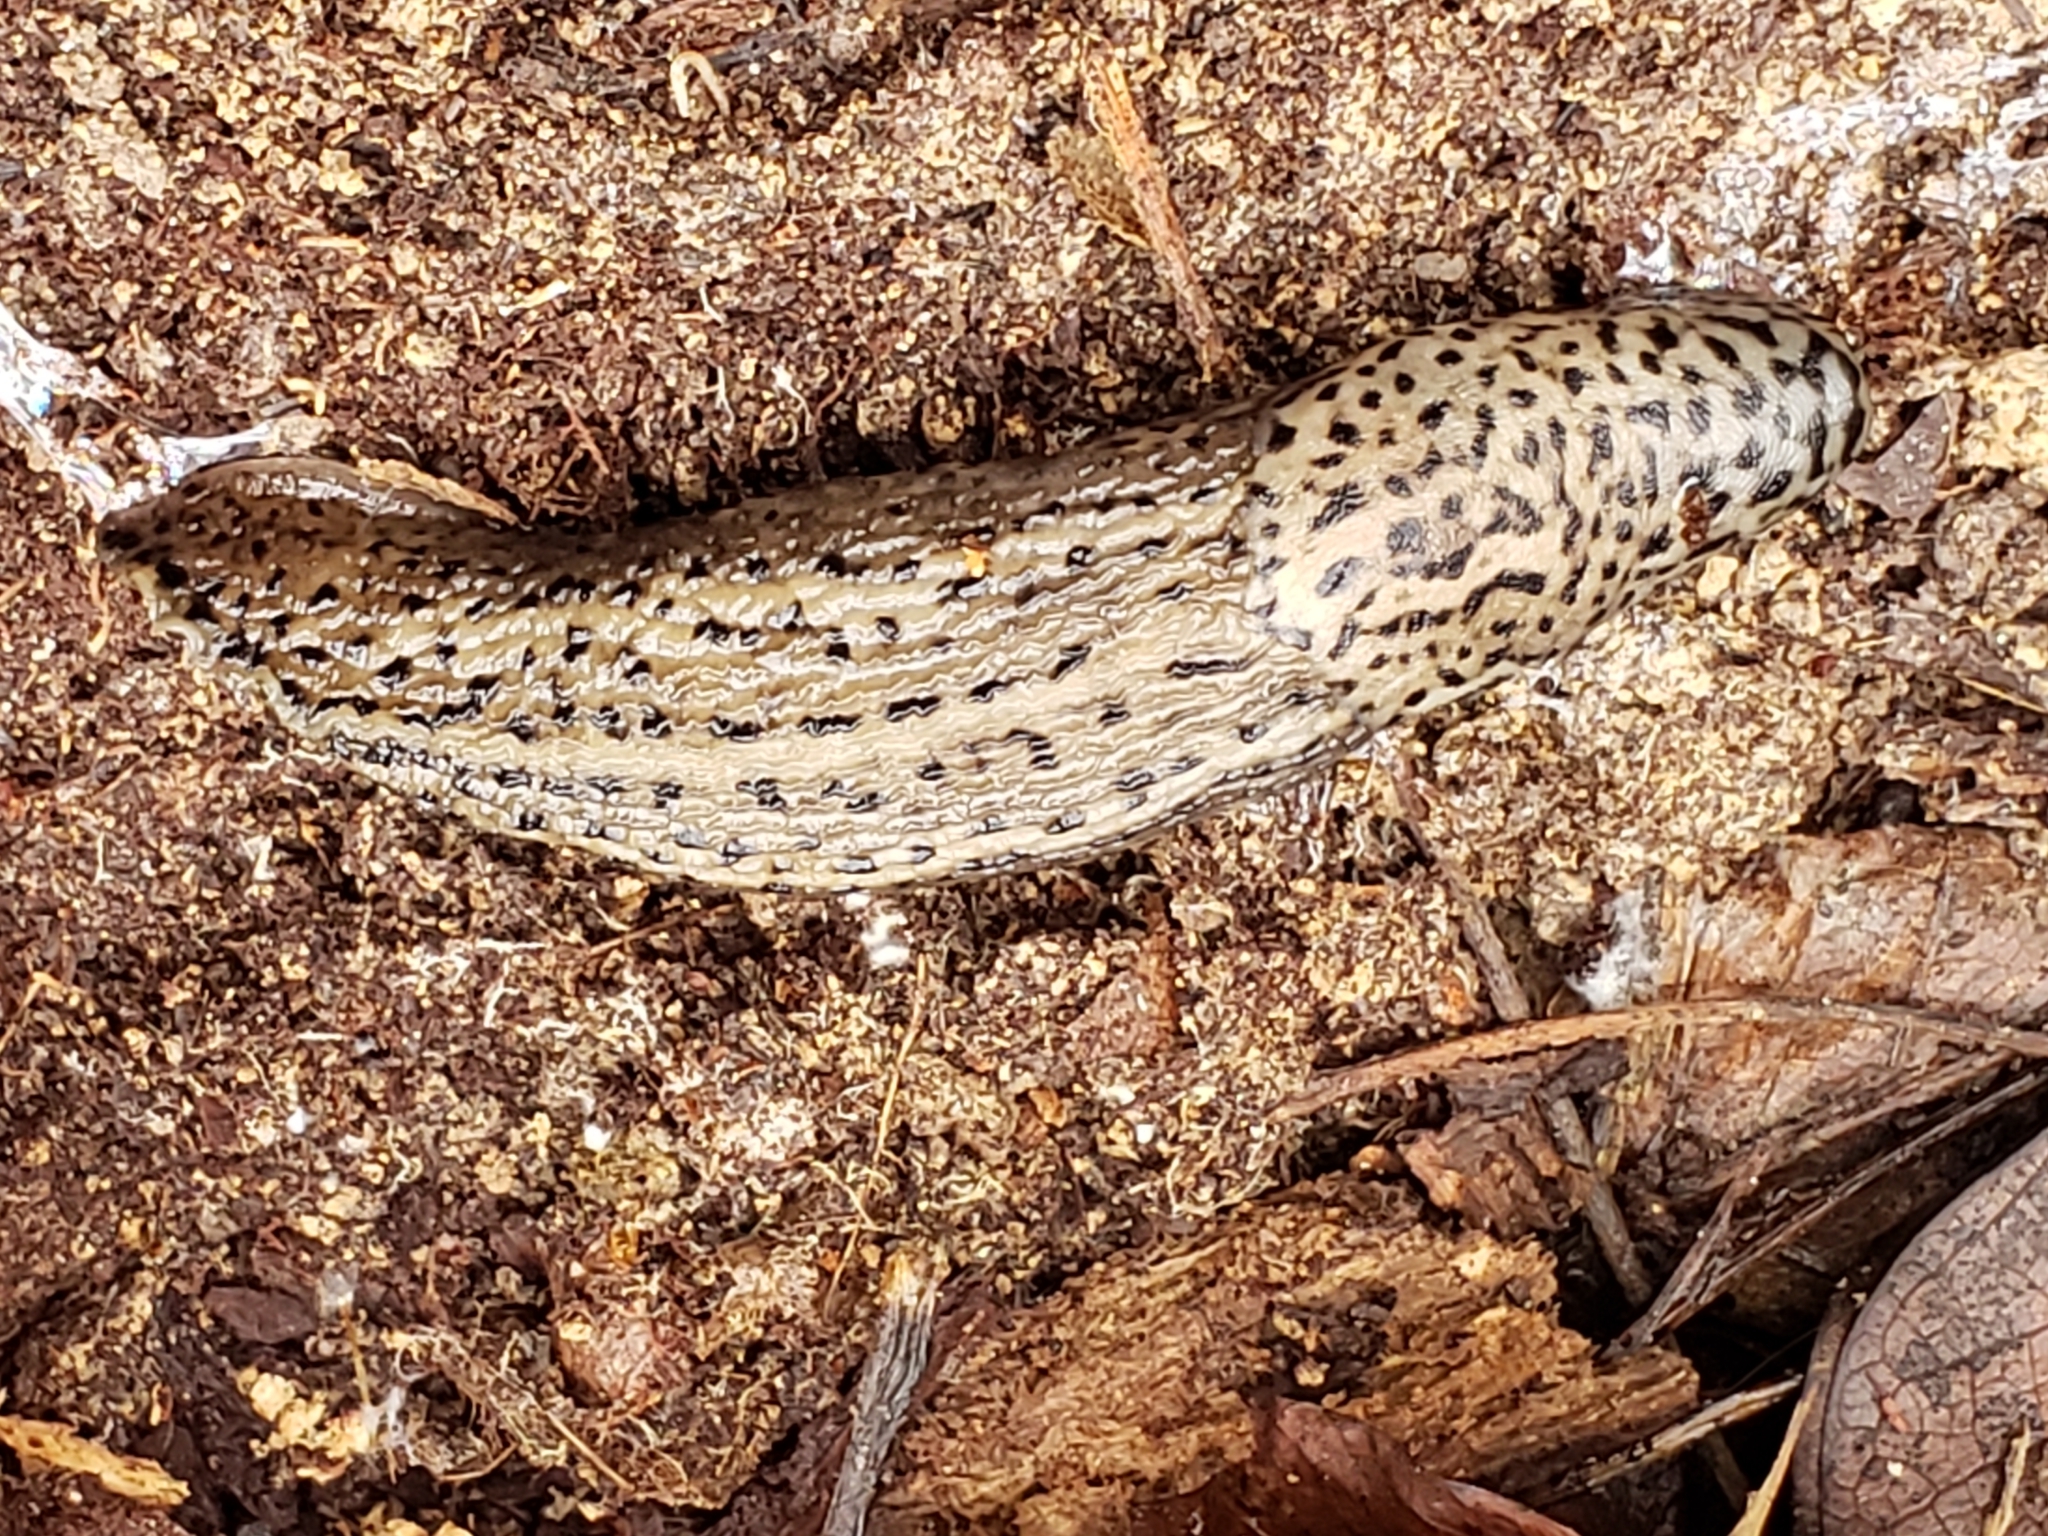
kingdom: Animalia
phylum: Mollusca
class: Gastropoda
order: Stylommatophora
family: Limacidae
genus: Limax
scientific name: Limax maximus
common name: Great grey slug
